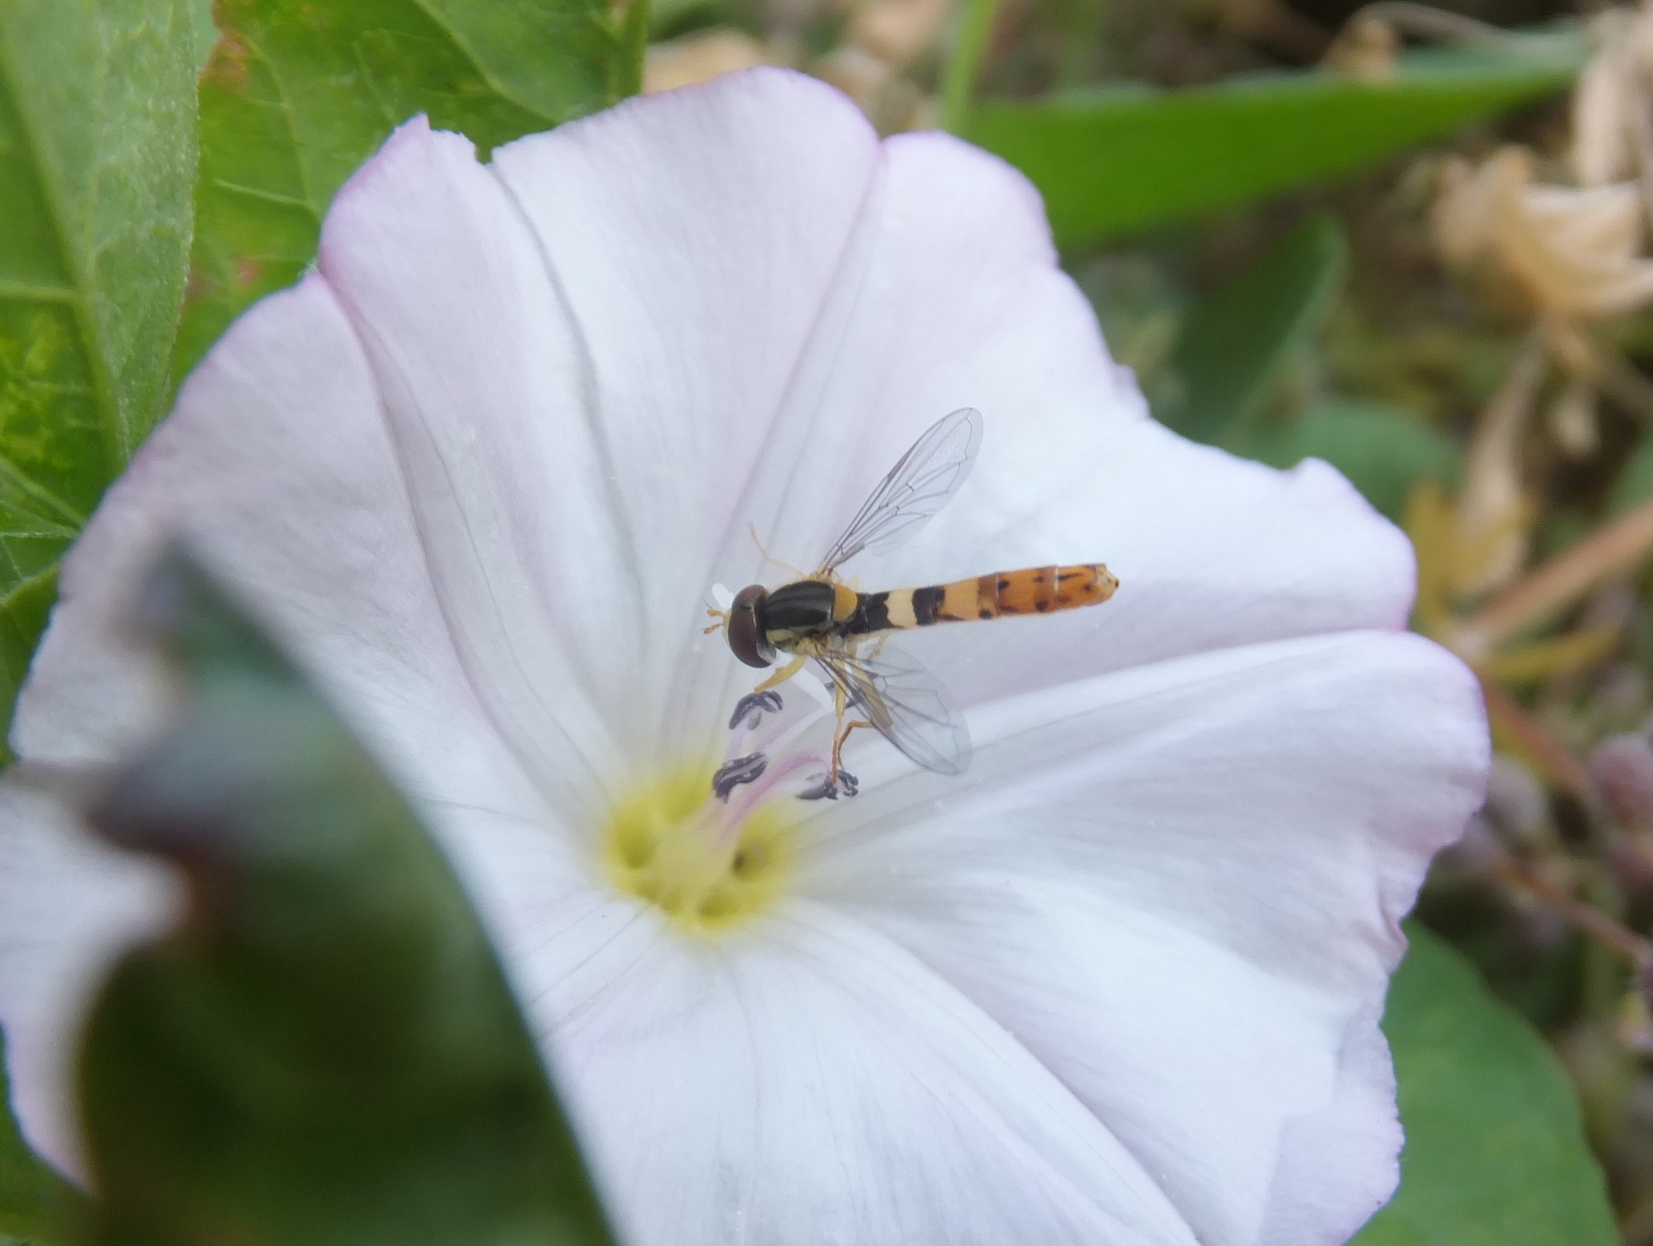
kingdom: Animalia
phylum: Arthropoda
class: Insecta
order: Diptera
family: Syrphidae
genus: Sphaerophoria
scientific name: Sphaerophoria scripta
